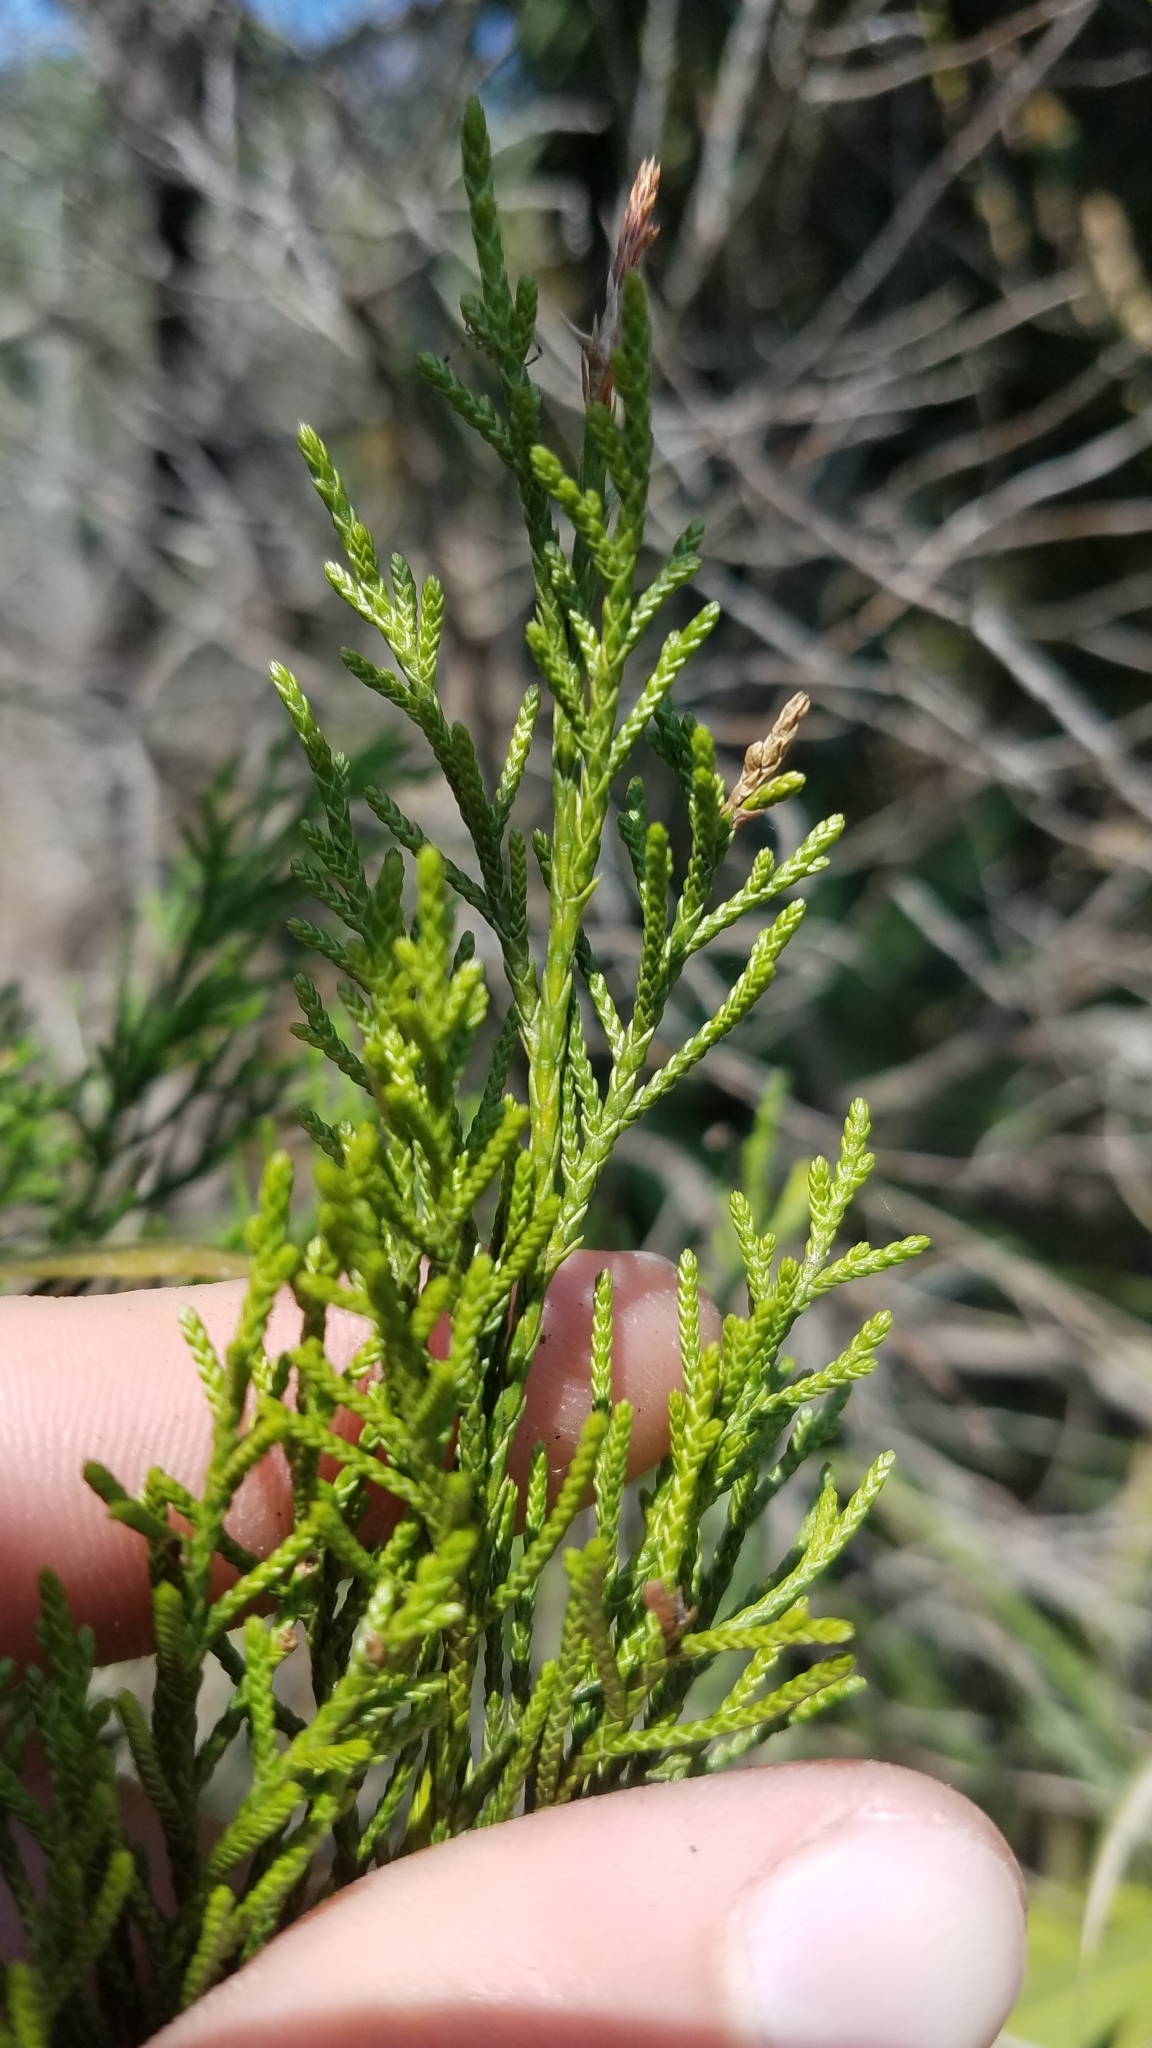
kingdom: Plantae
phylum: Tracheophyta
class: Pinopsida
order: Pinales
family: Cupressaceae
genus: Juniperus
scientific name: Juniperus virginiana
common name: Red juniper
